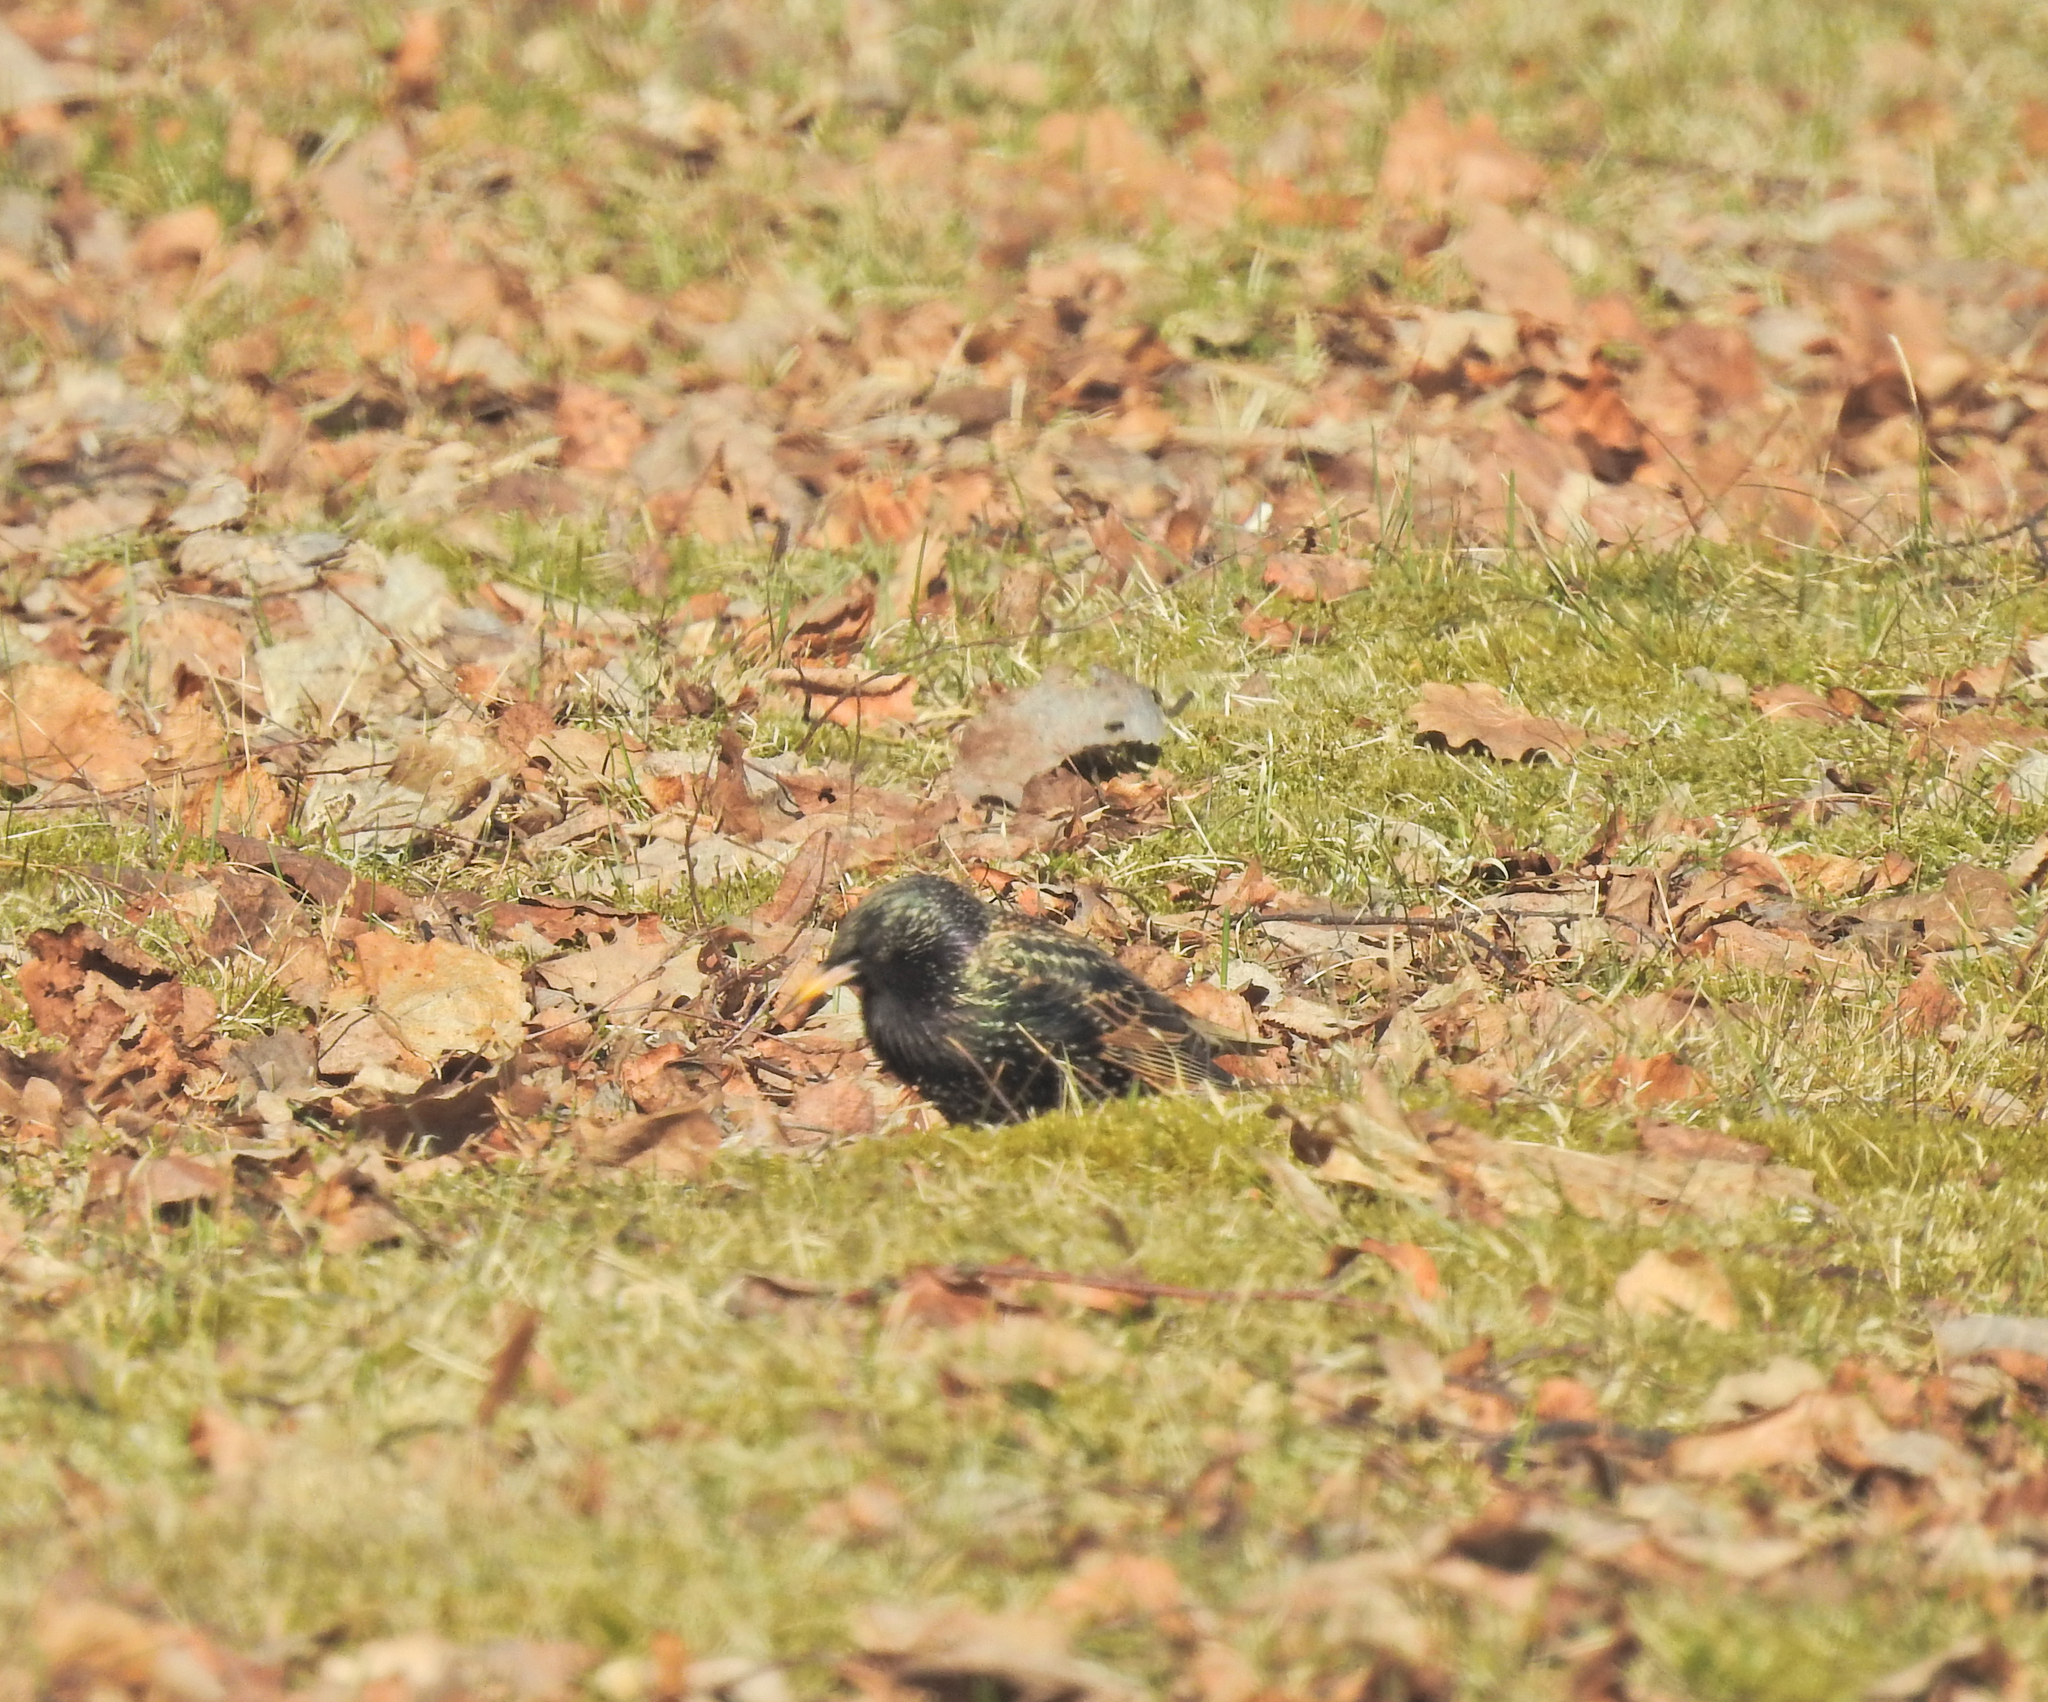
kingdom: Animalia
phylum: Chordata
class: Aves
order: Passeriformes
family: Sturnidae
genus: Sturnus
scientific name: Sturnus vulgaris
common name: Common starling
